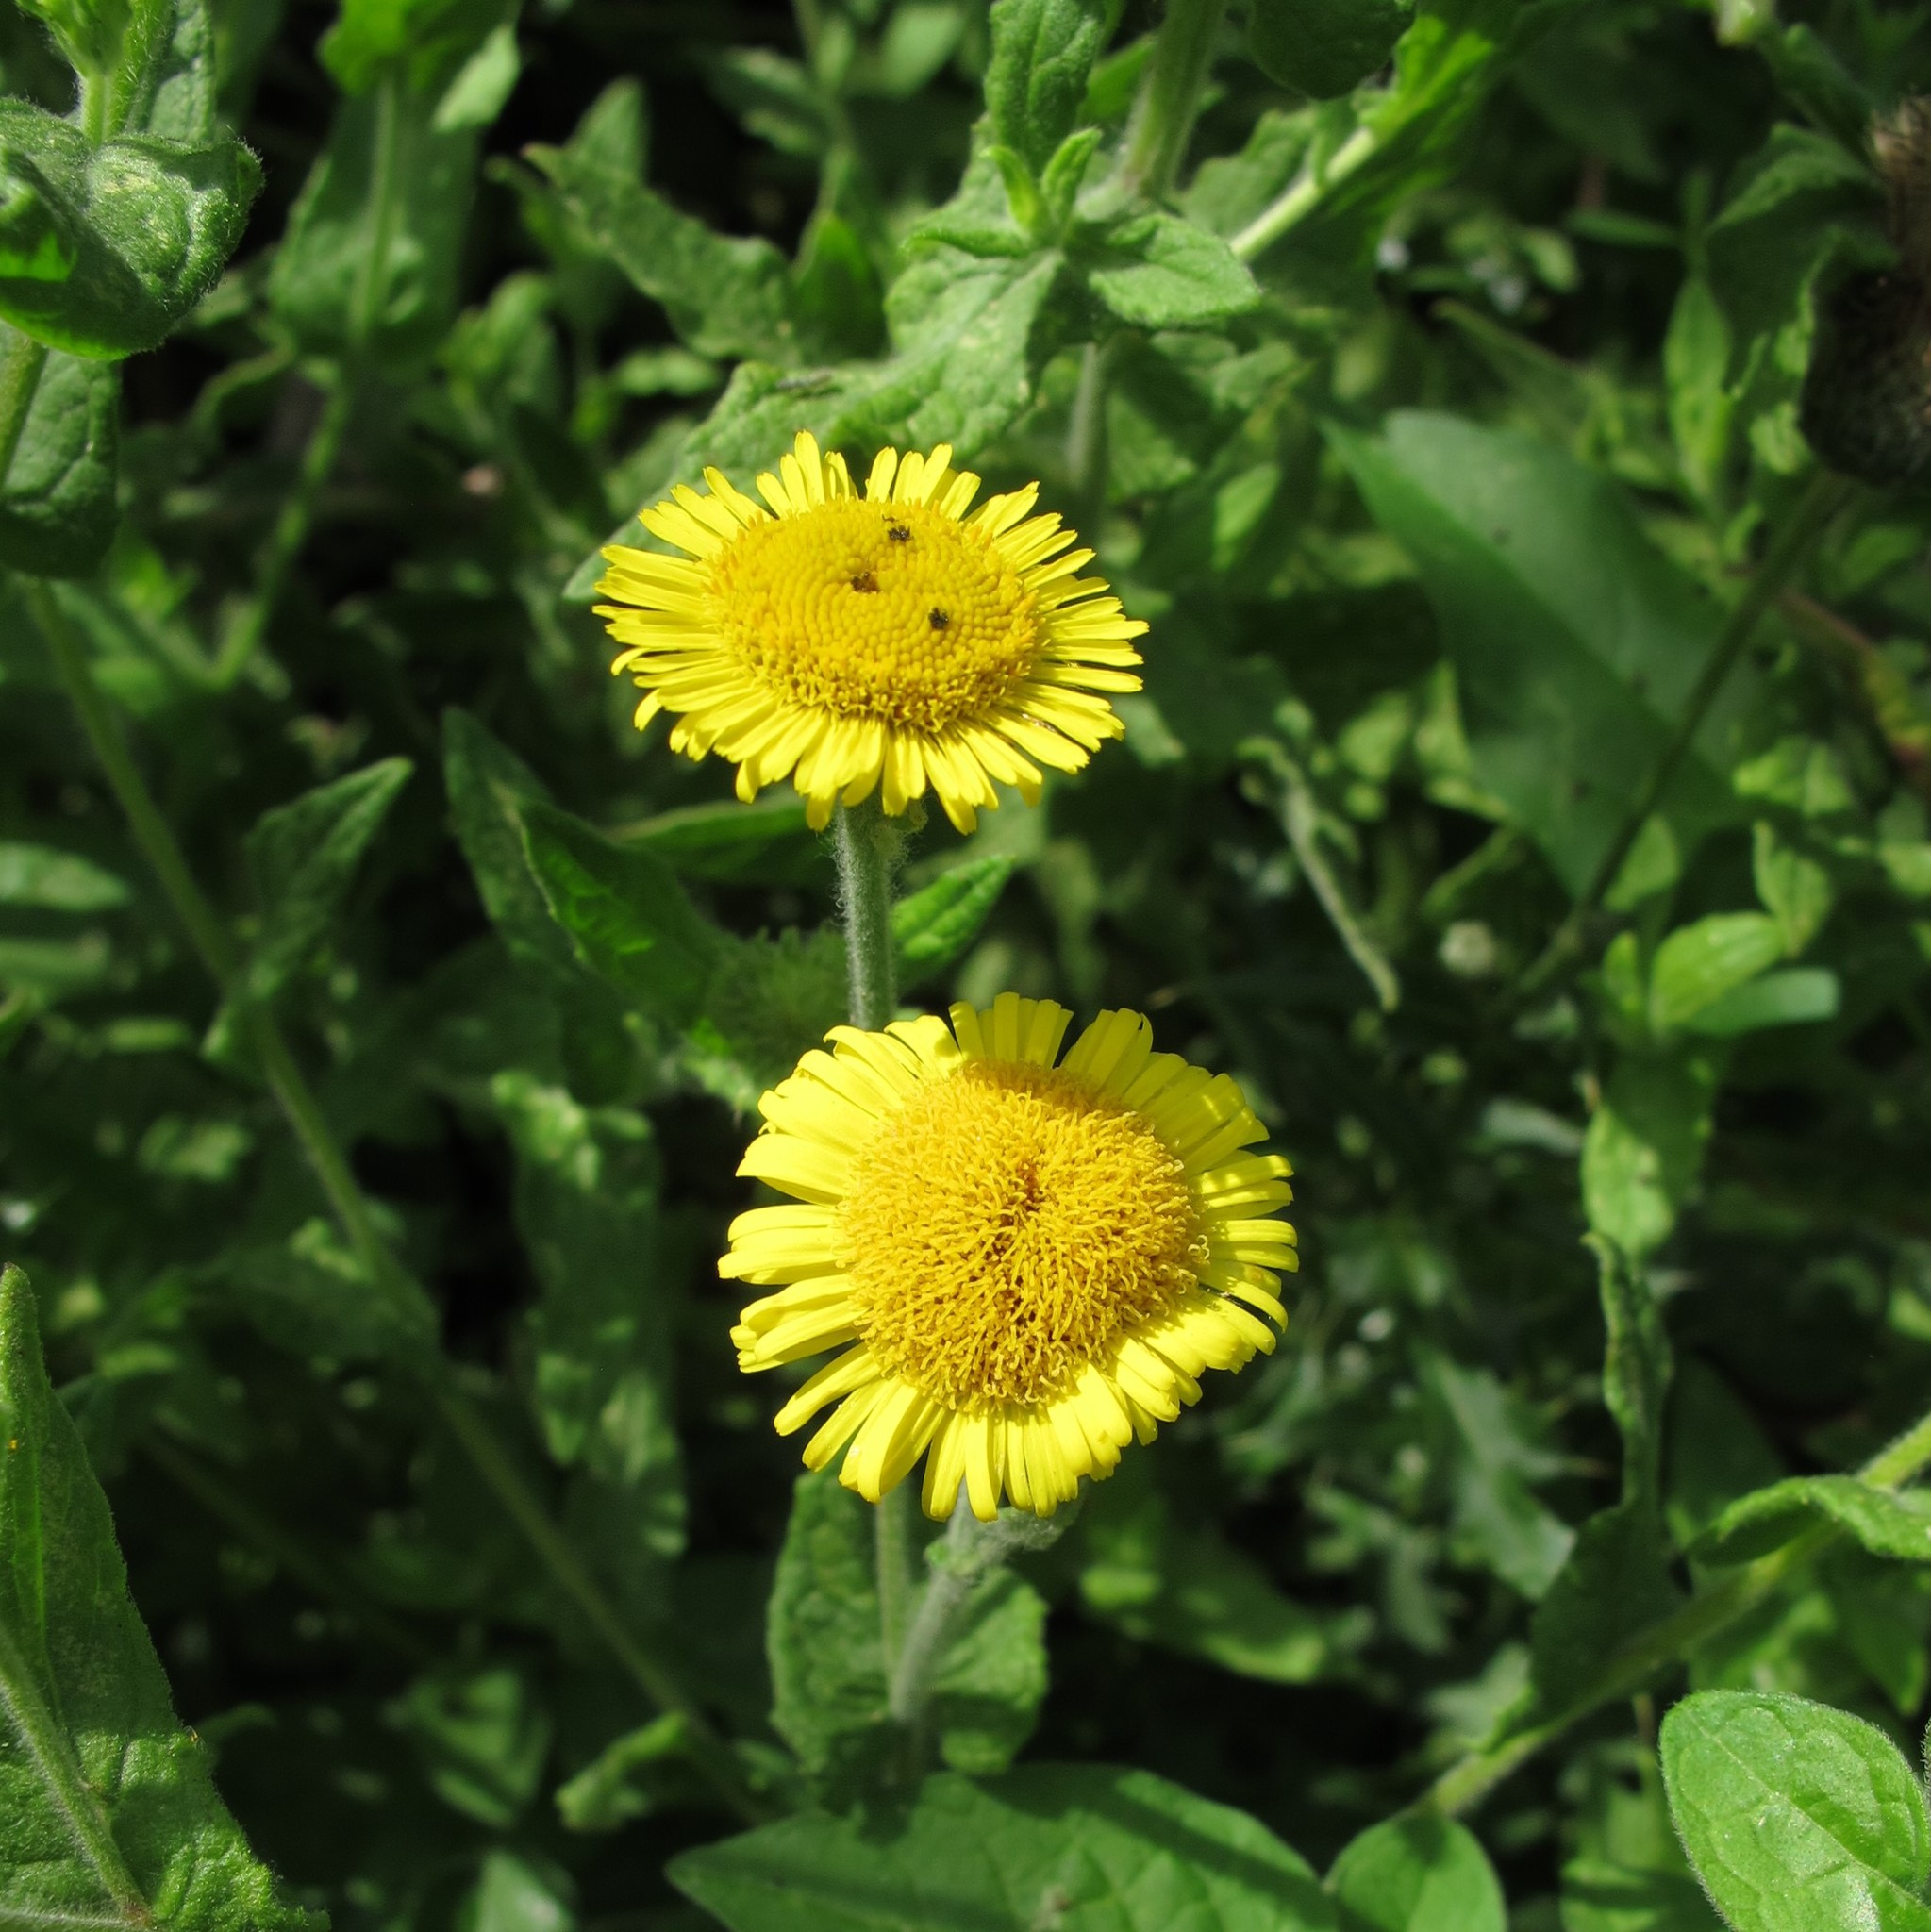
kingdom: Plantae
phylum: Tracheophyta
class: Magnoliopsida
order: Asterales
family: Asteraceae
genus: Pulicaria
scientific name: Pulicaria dysenterica
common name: Common fleabane
